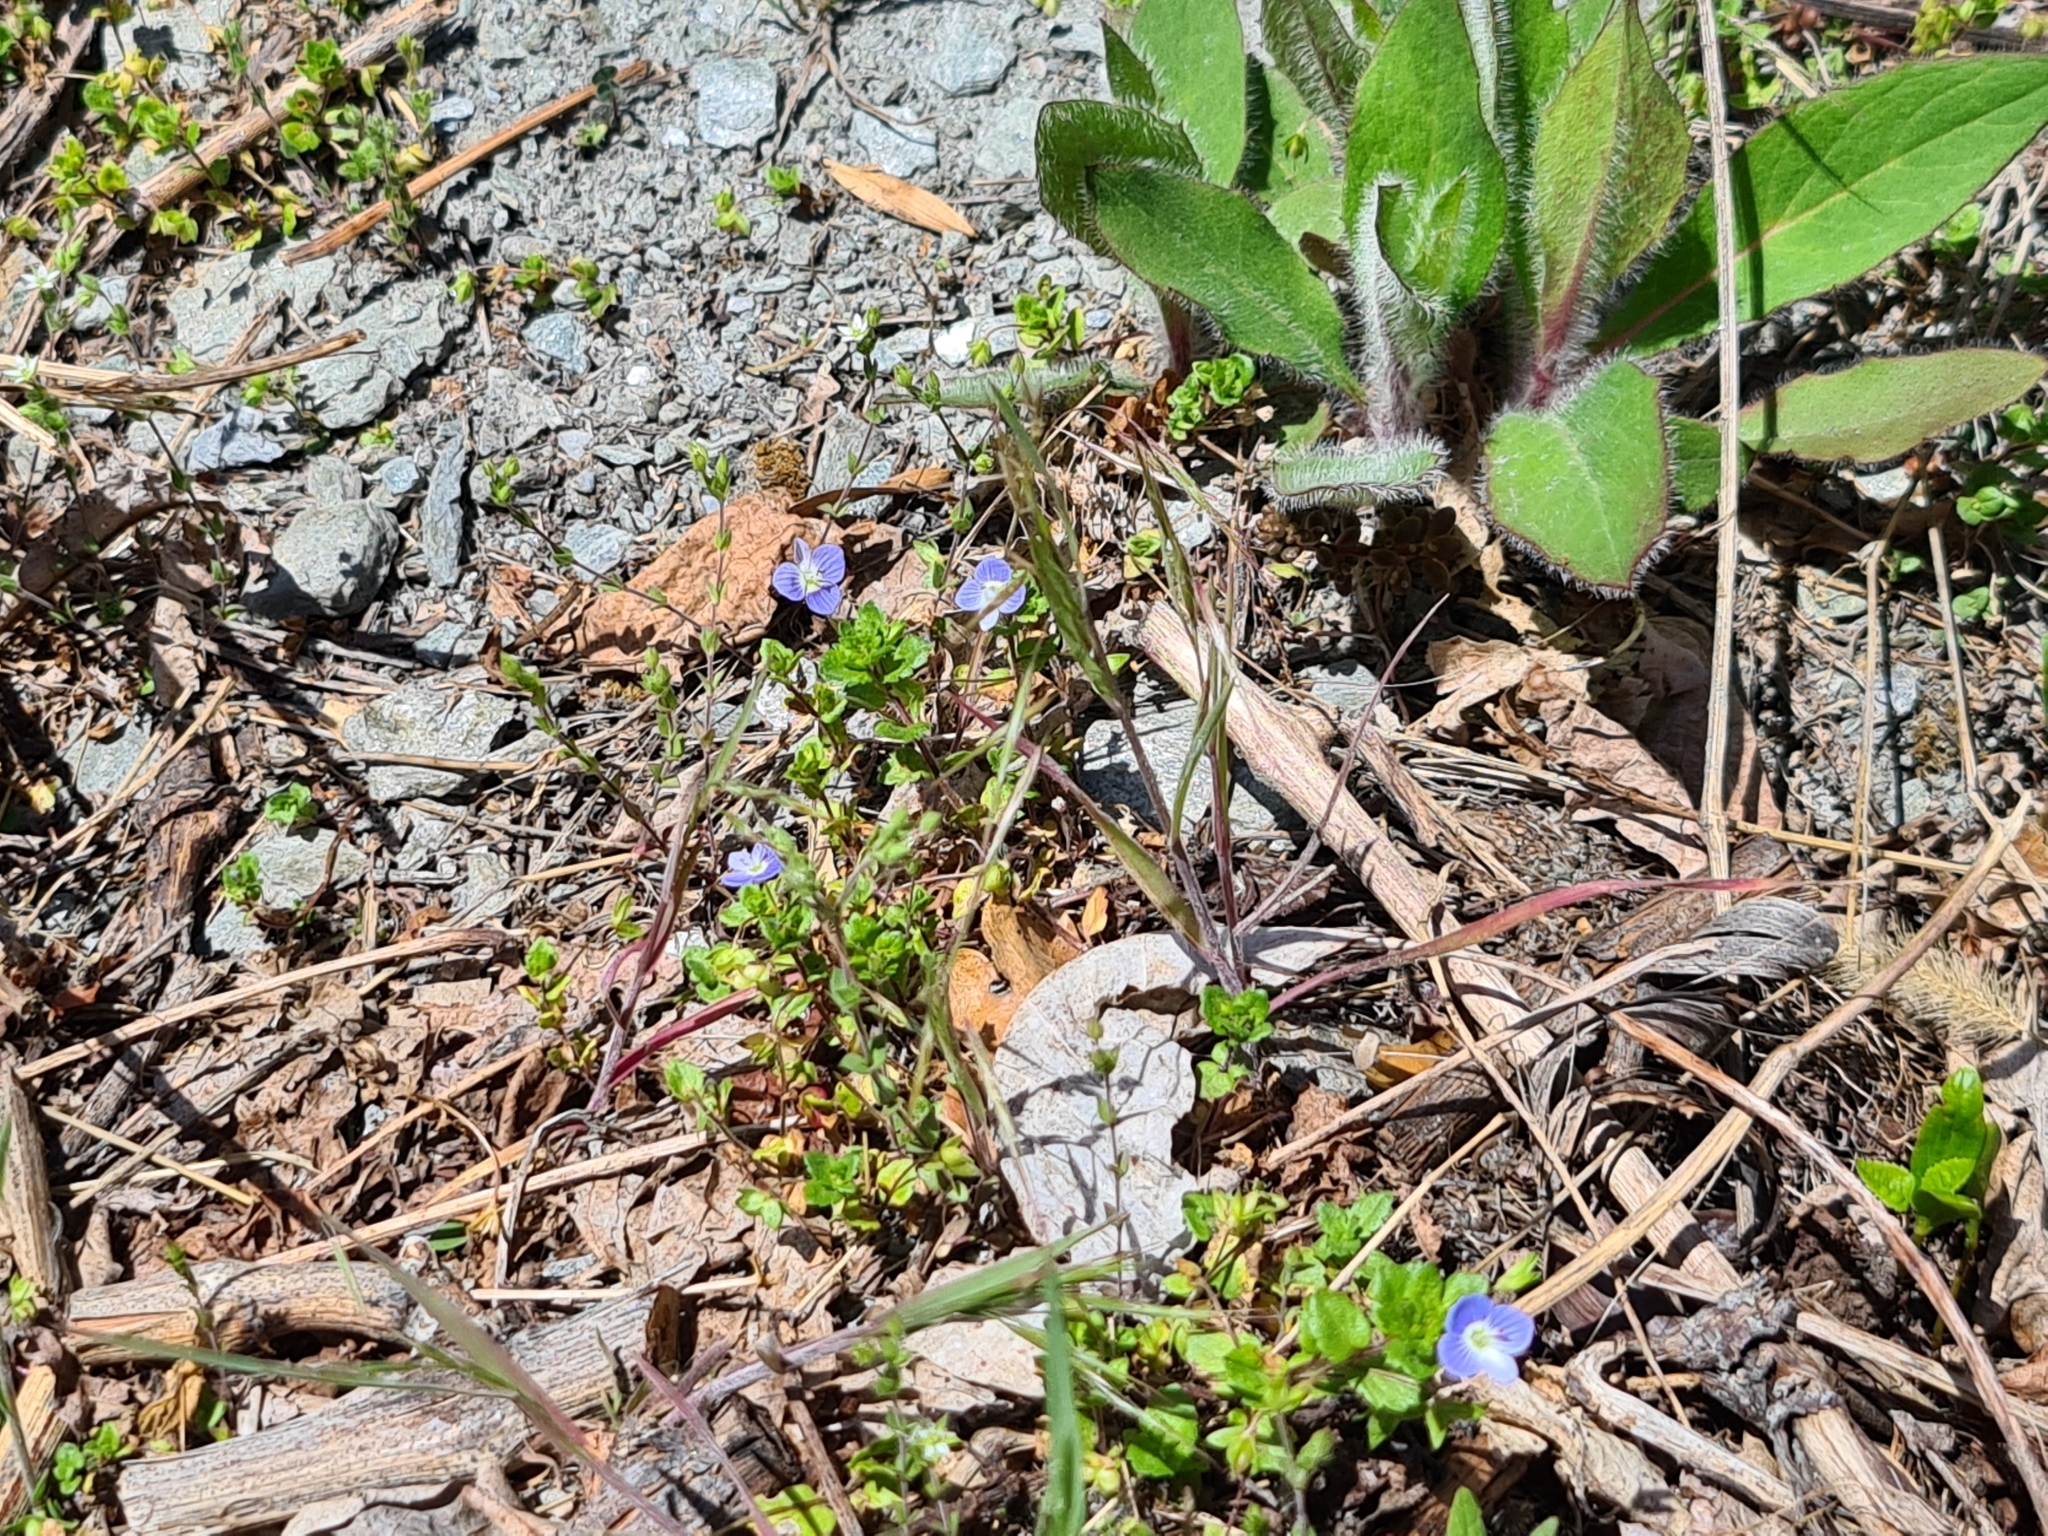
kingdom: Plantae
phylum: Tracheophyta
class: Magnoliopsida
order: Lamiales
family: Plantaginaceae
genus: Veronica
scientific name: Veronica persica
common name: Common field-speedwell
